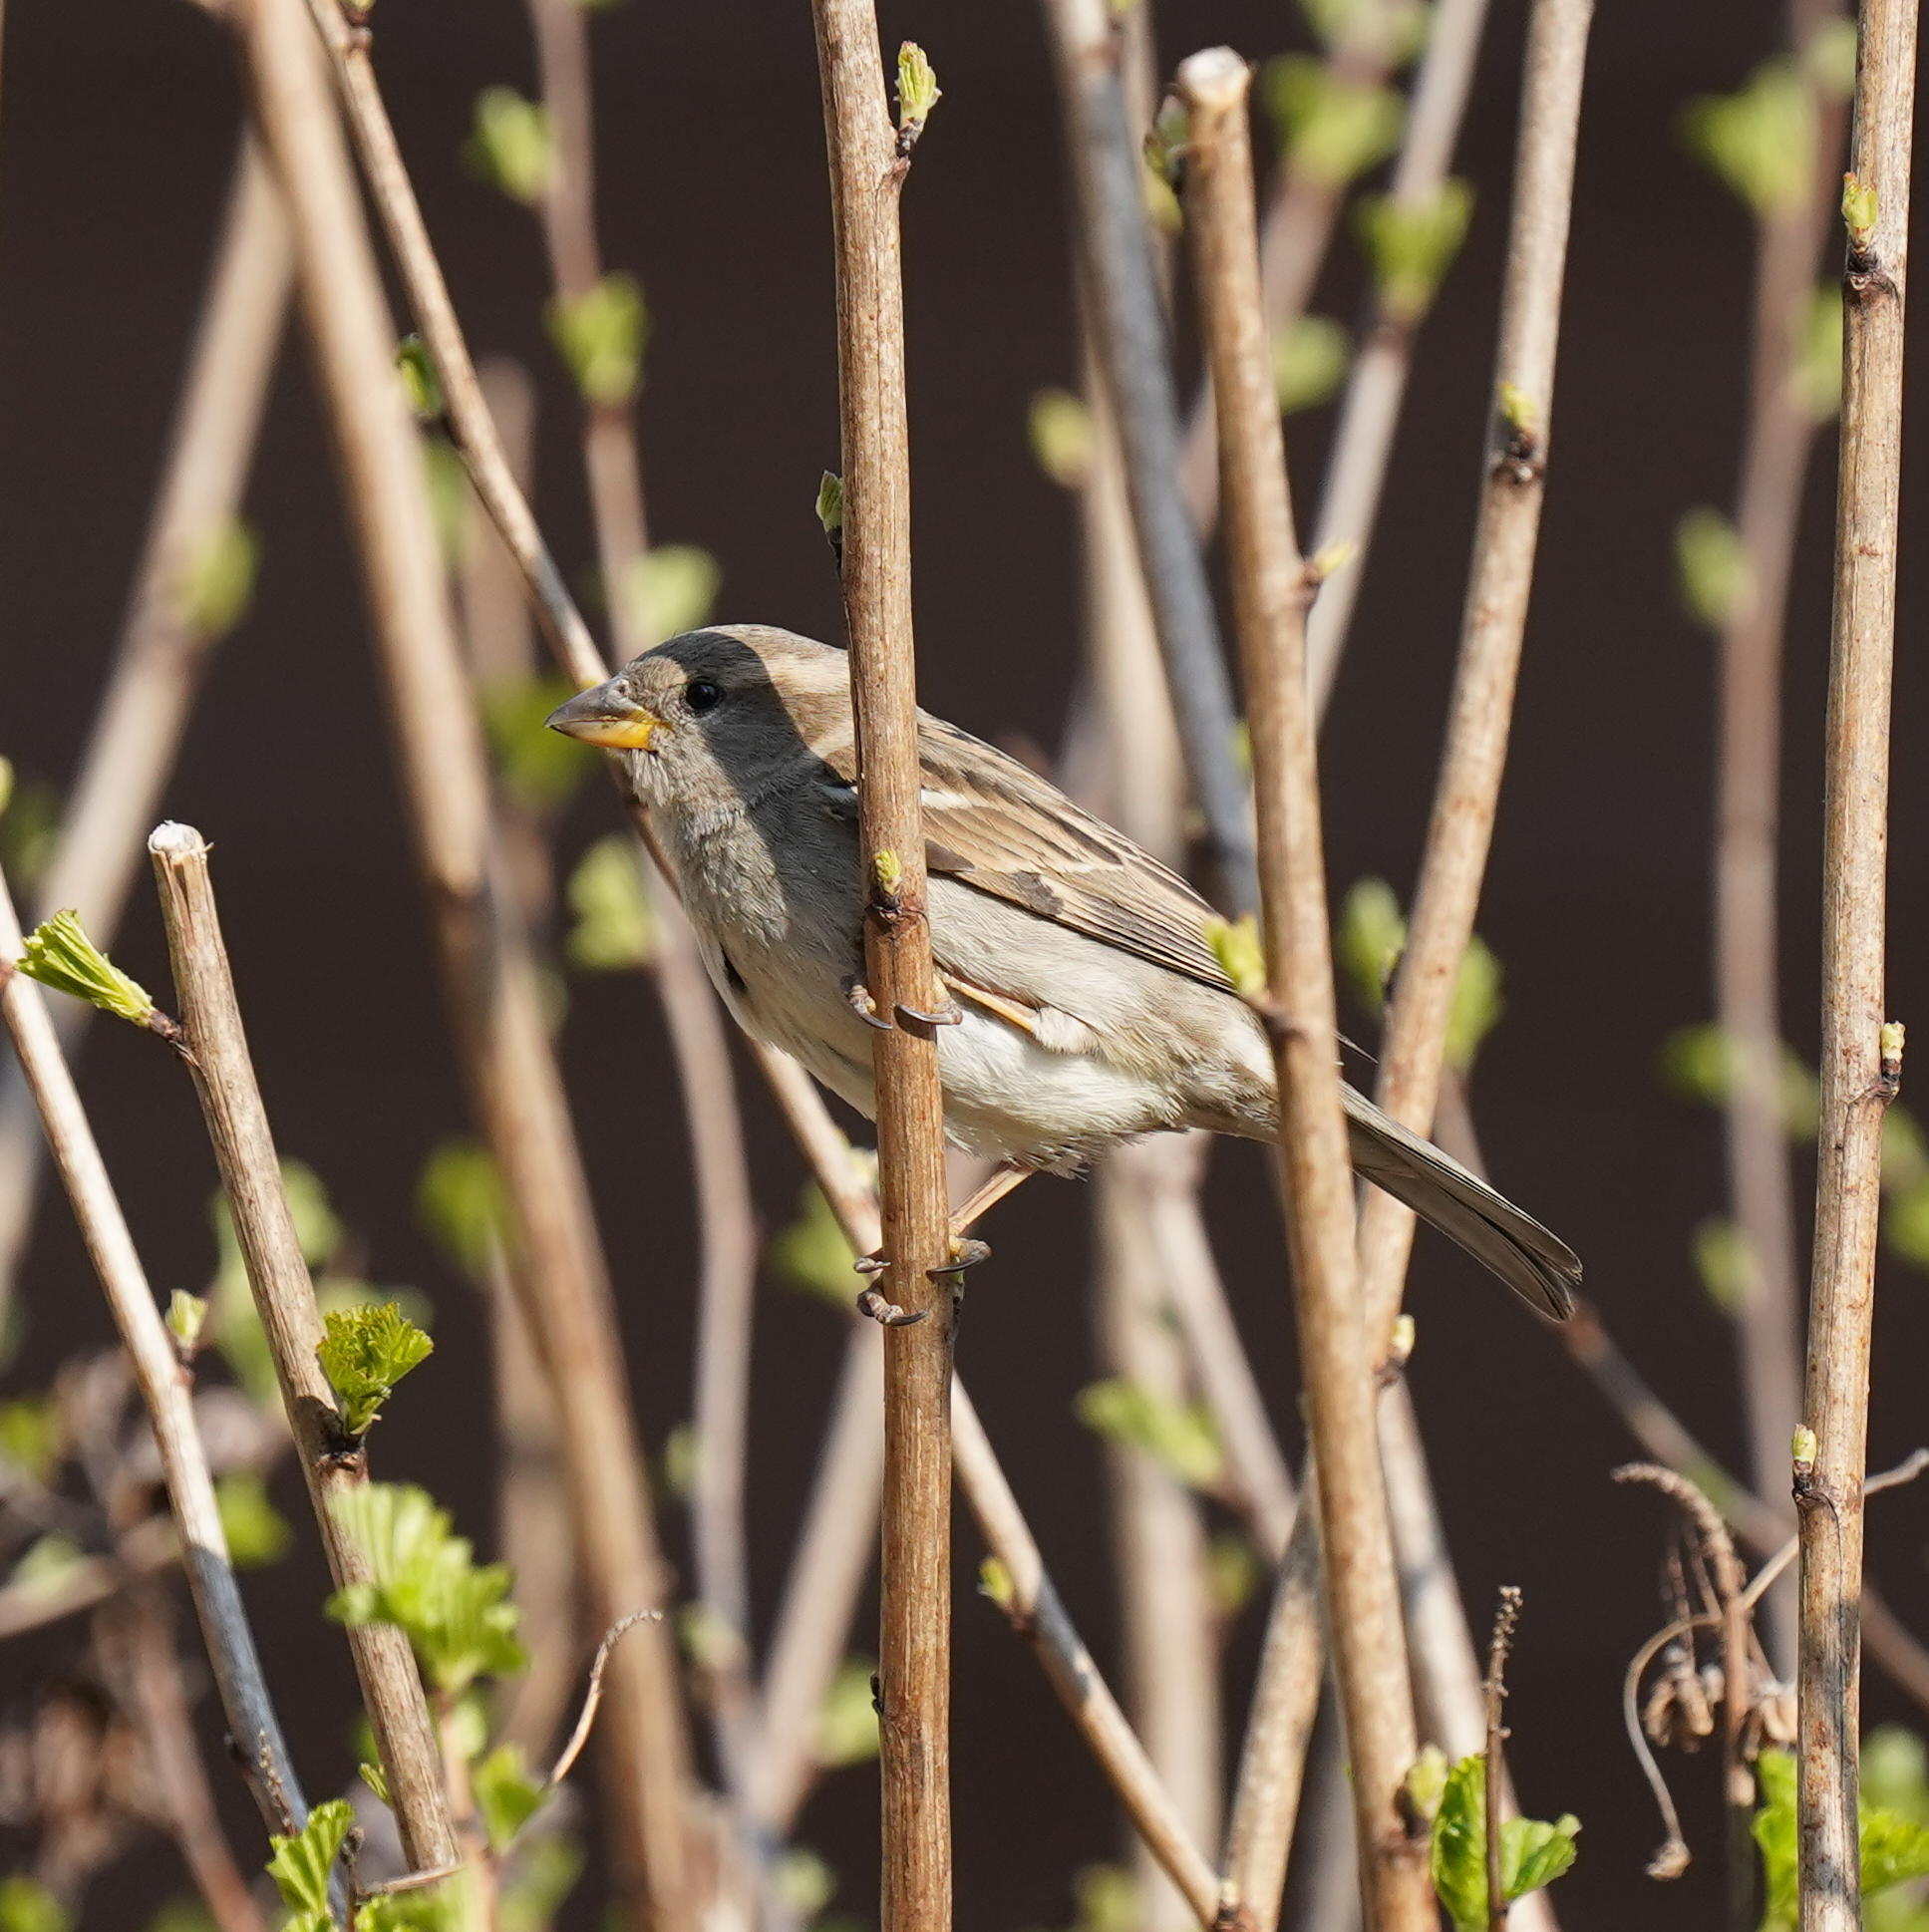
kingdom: Animalia
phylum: Chordata
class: Aves
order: Passeriformes
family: Passeridae
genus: Passer
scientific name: Passer domesticus
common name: House sparrow
